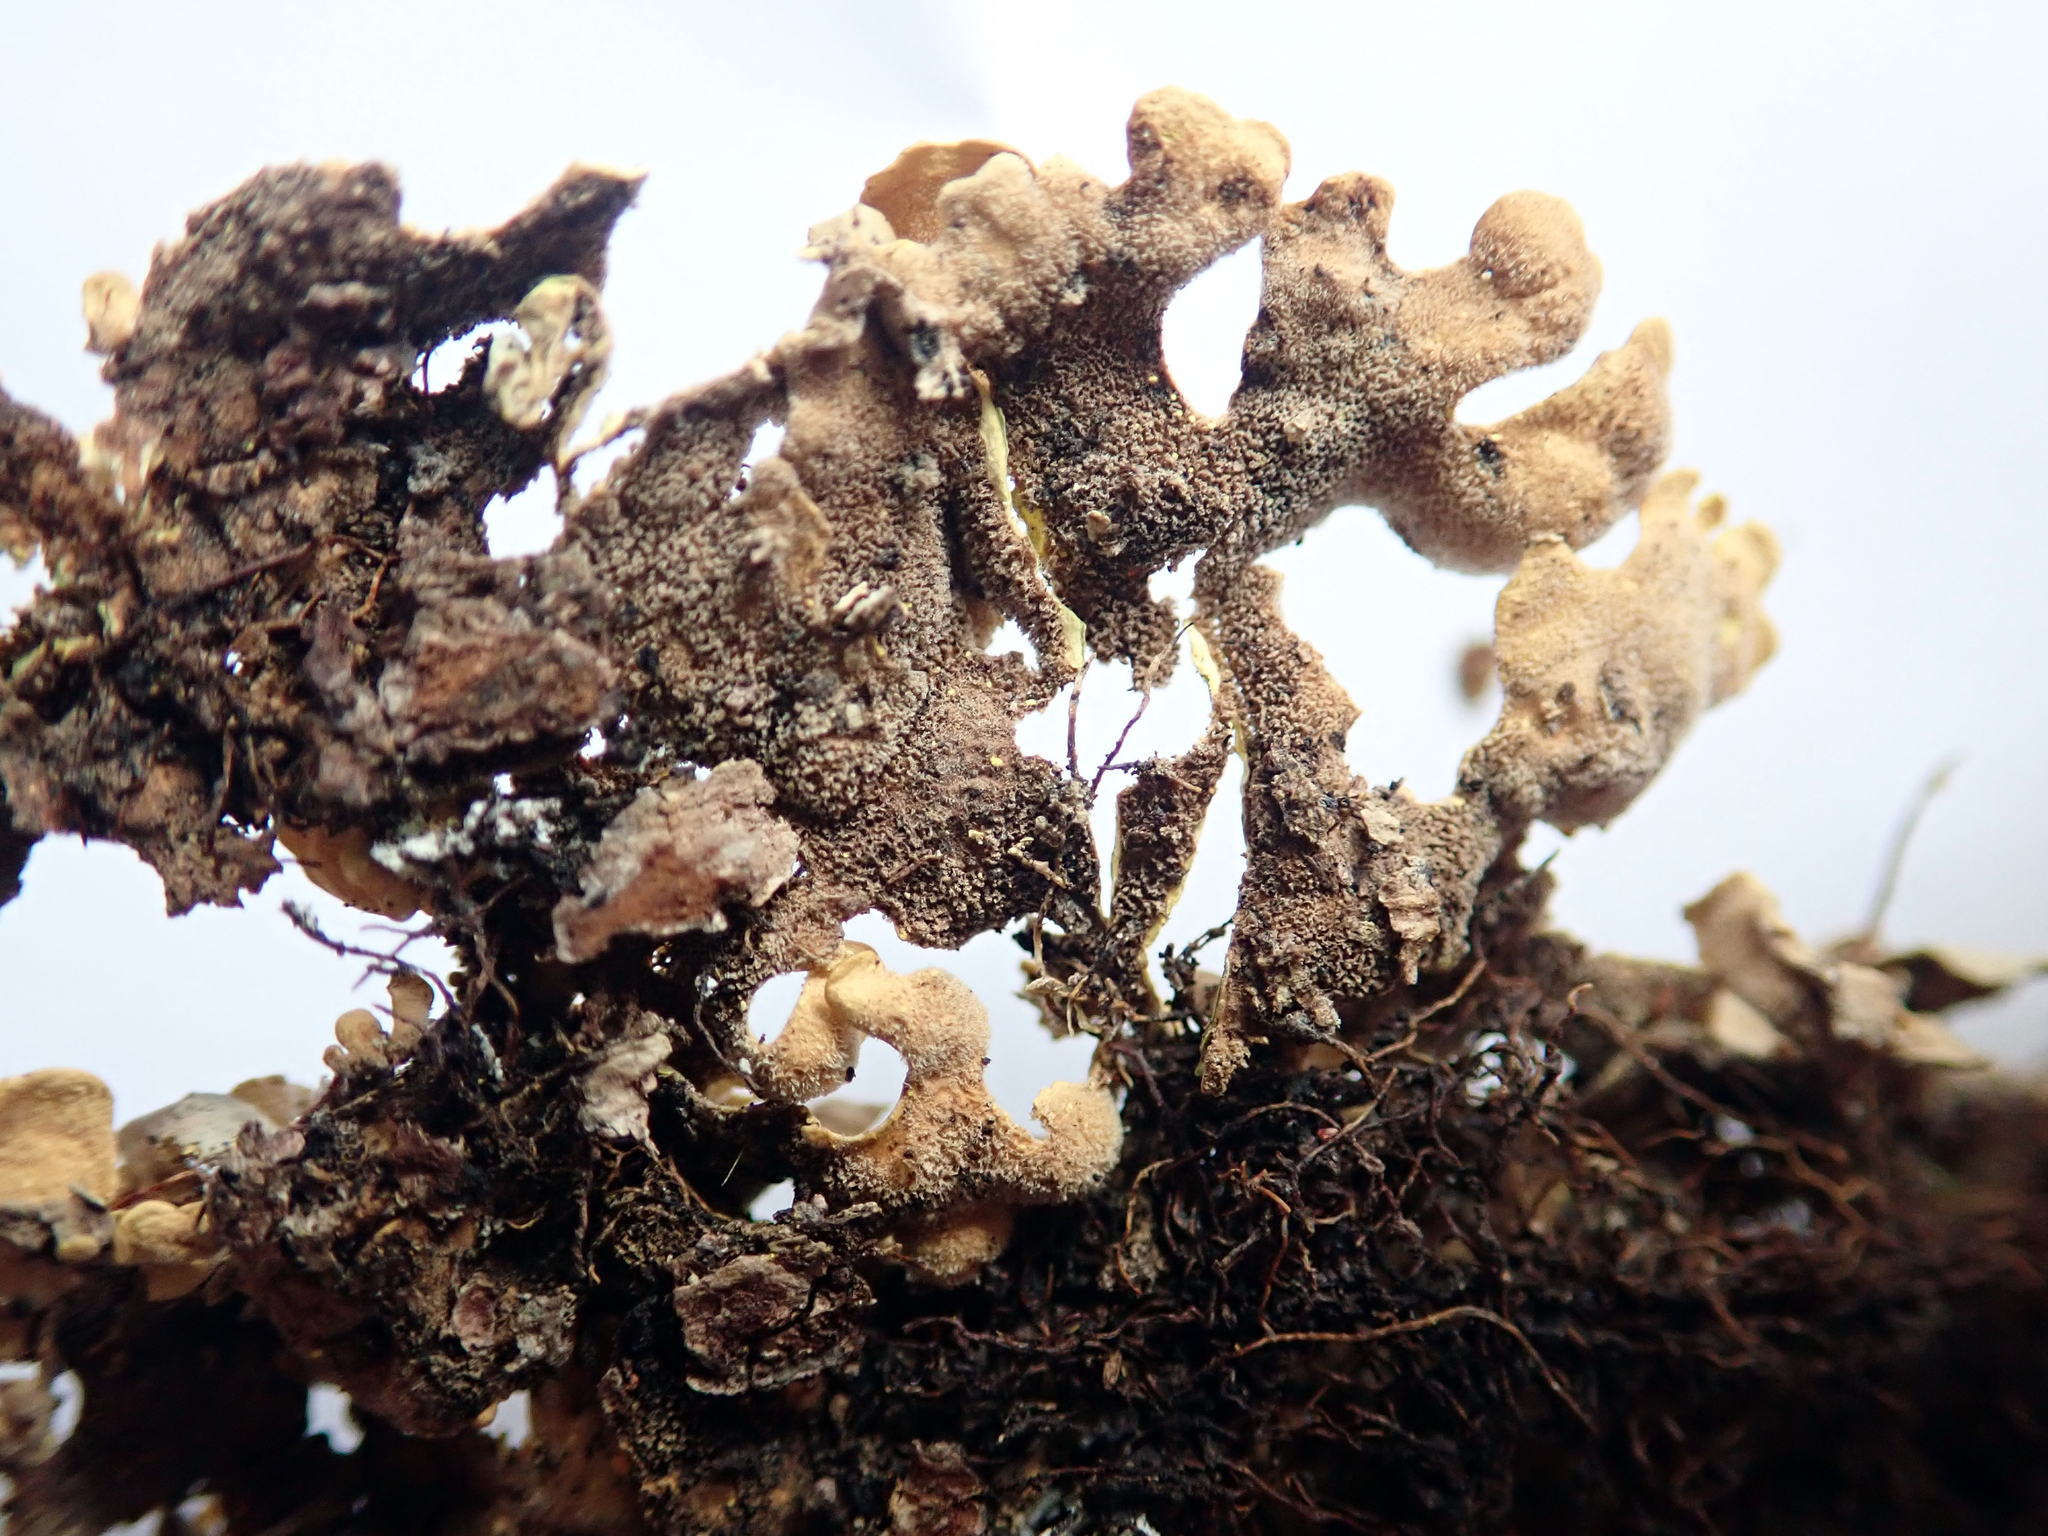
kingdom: Fungi
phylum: Ascomycota
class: Lecanoromycetes
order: Peltigerales
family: Lobariaceae
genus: Podostictina
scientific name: Podostictina degelii
